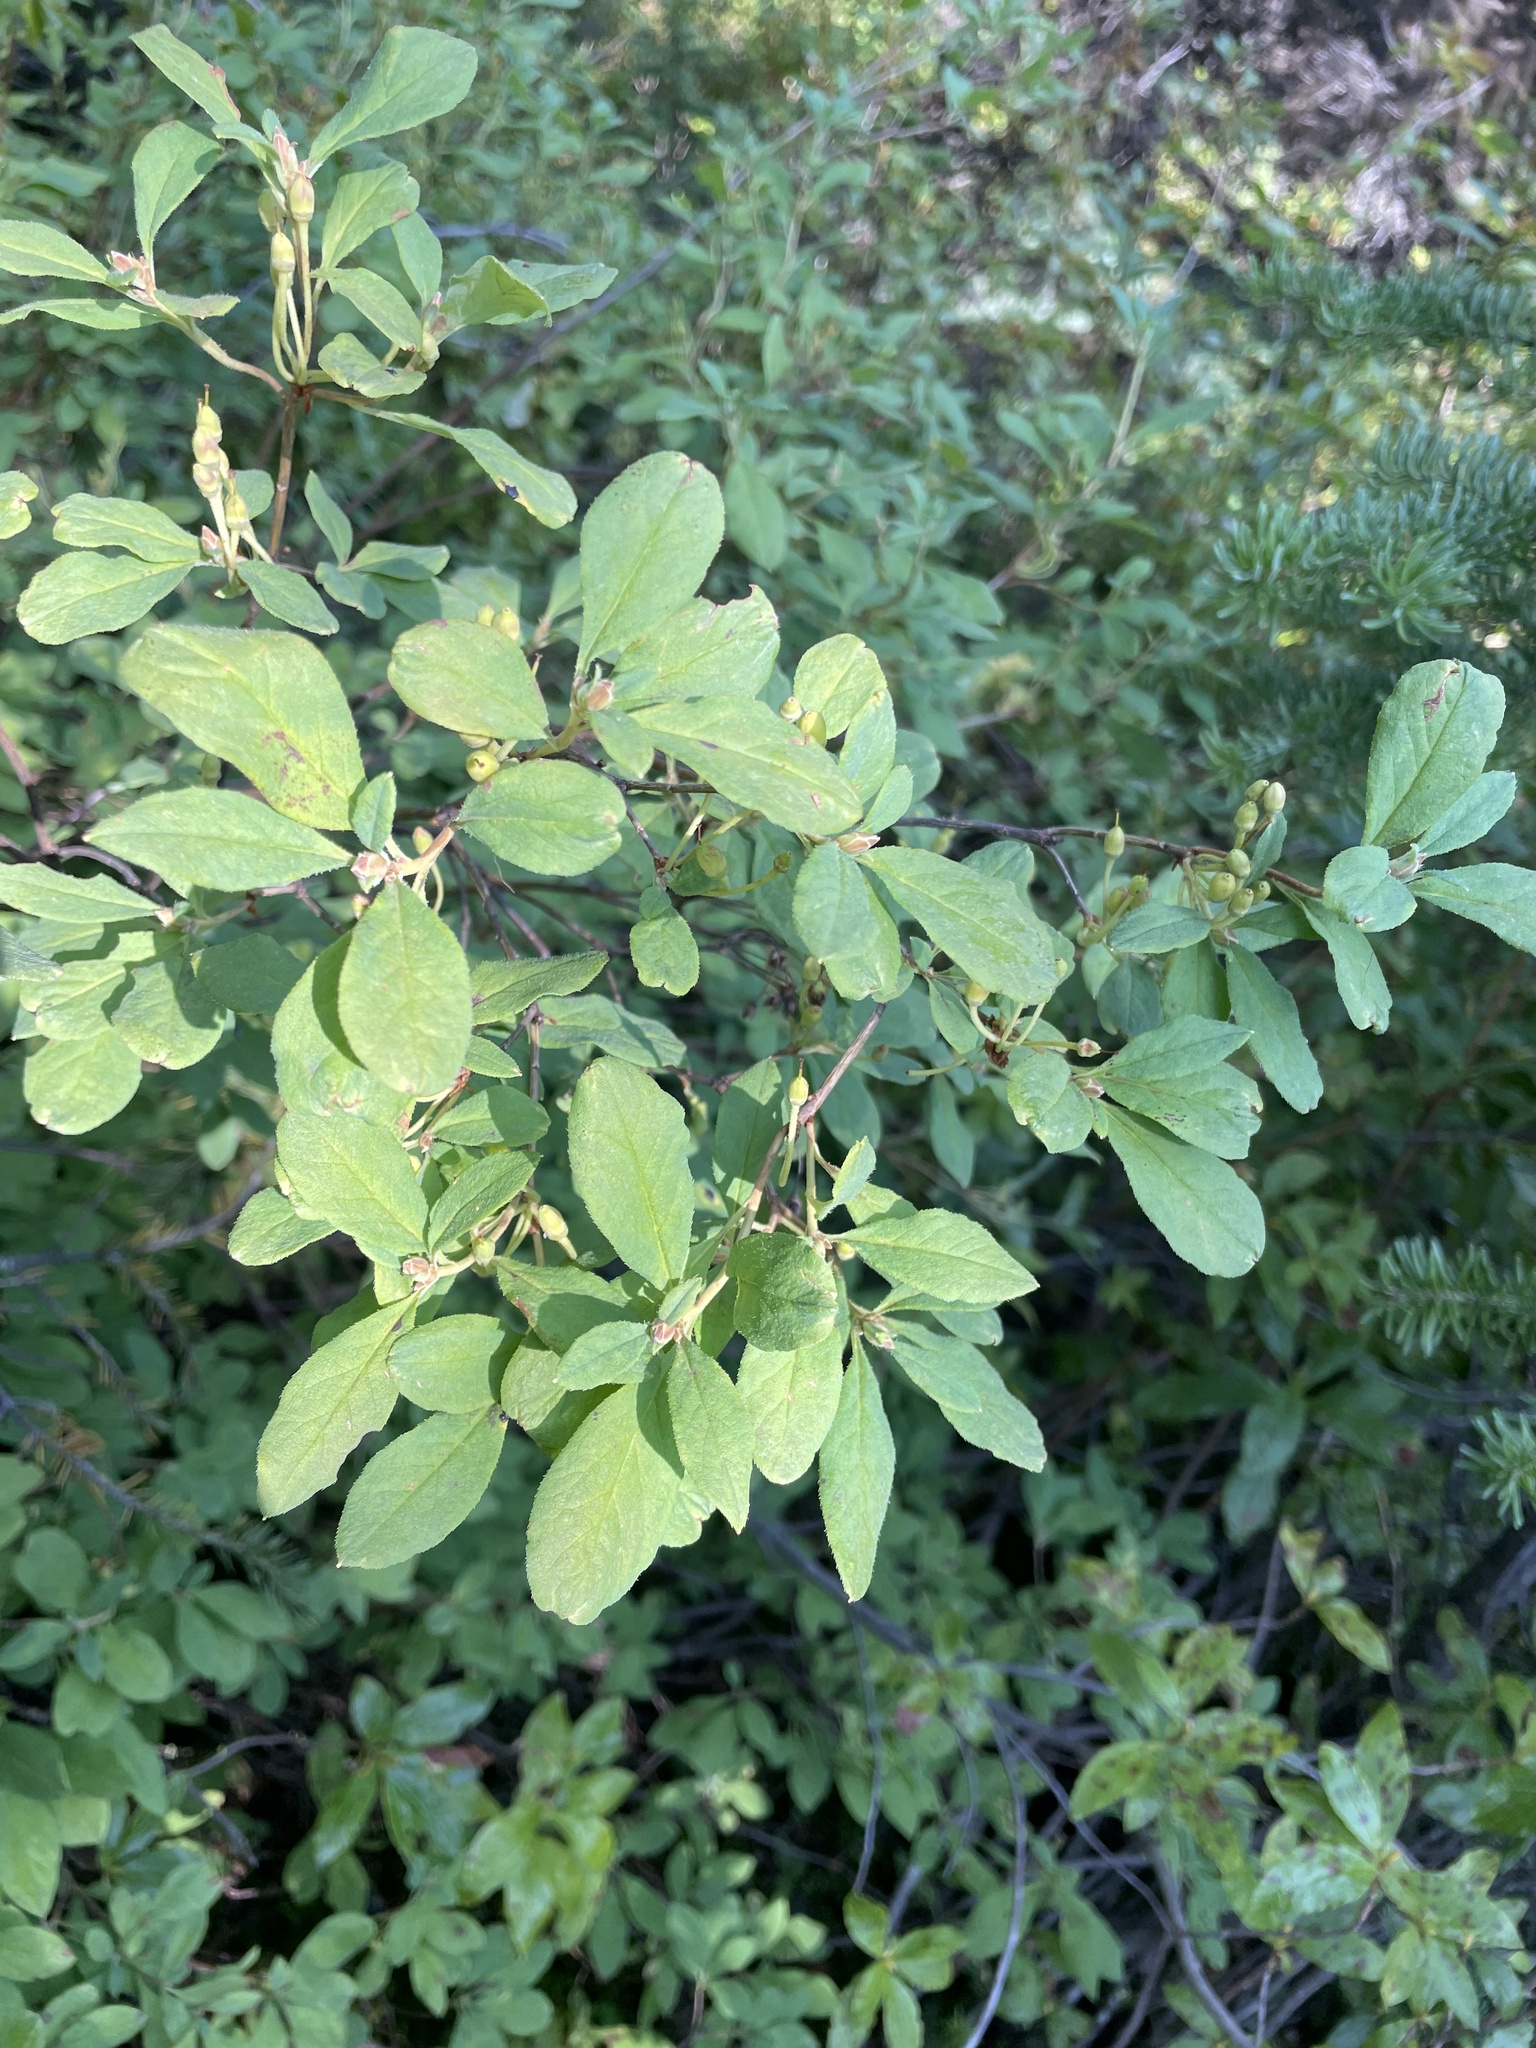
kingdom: Plantae
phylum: Tracheophyta
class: Magnoliopsida
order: Ericales
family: Ericaceae
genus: Rhododendron
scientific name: Rhododendron menziesii
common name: Pacific menziesia
